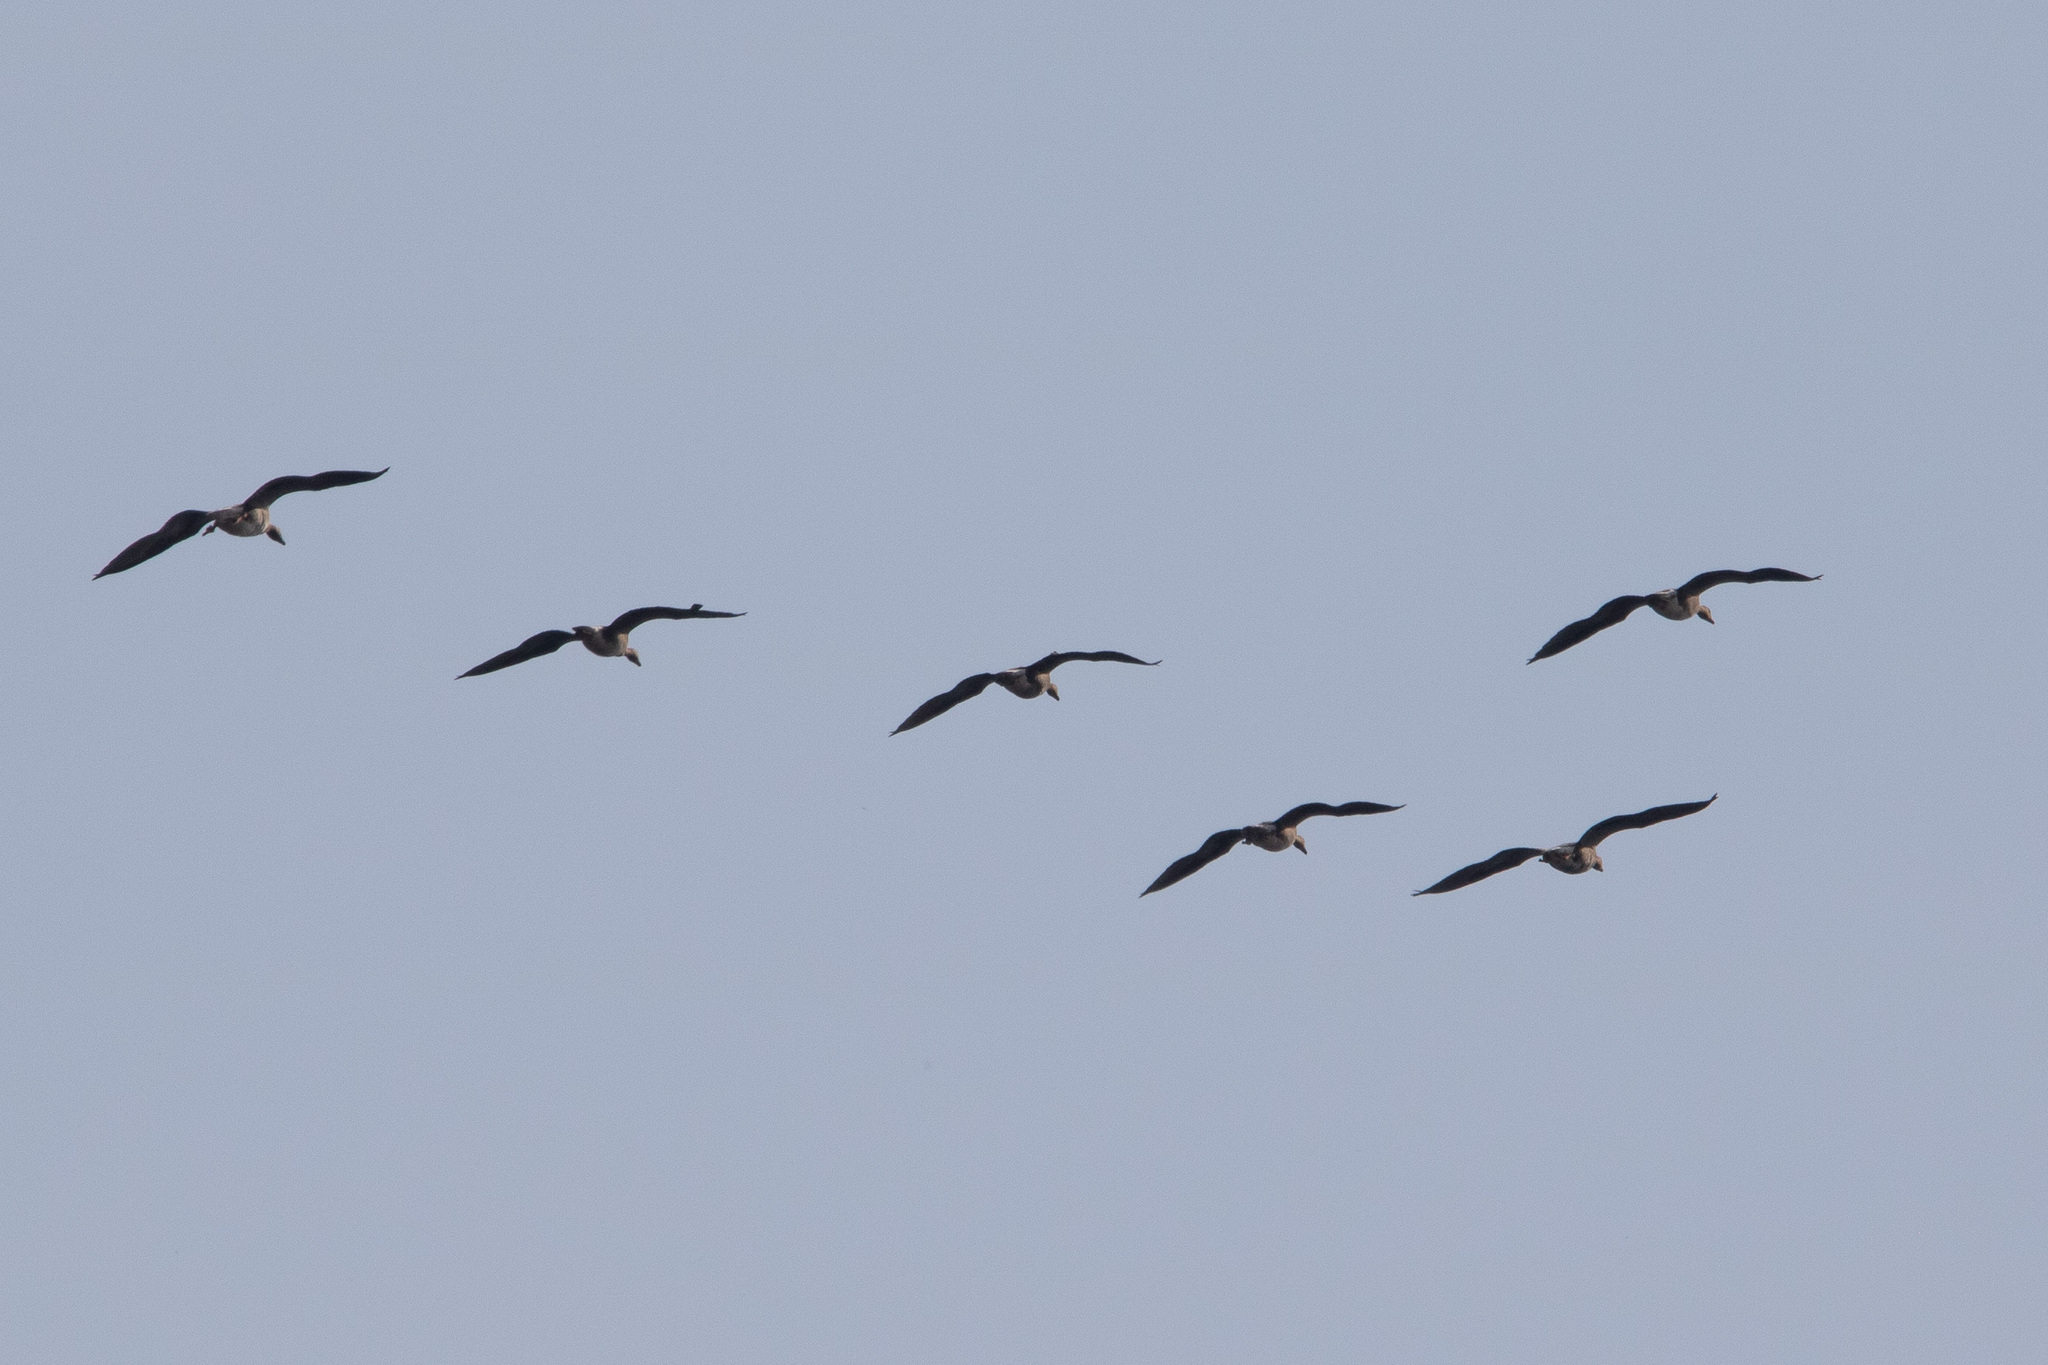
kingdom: Animalia
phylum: Chordata
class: Aves
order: Anseriformes
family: Anatidae
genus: Anser
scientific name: Anser albifrons
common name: Greater white-fronted goose
